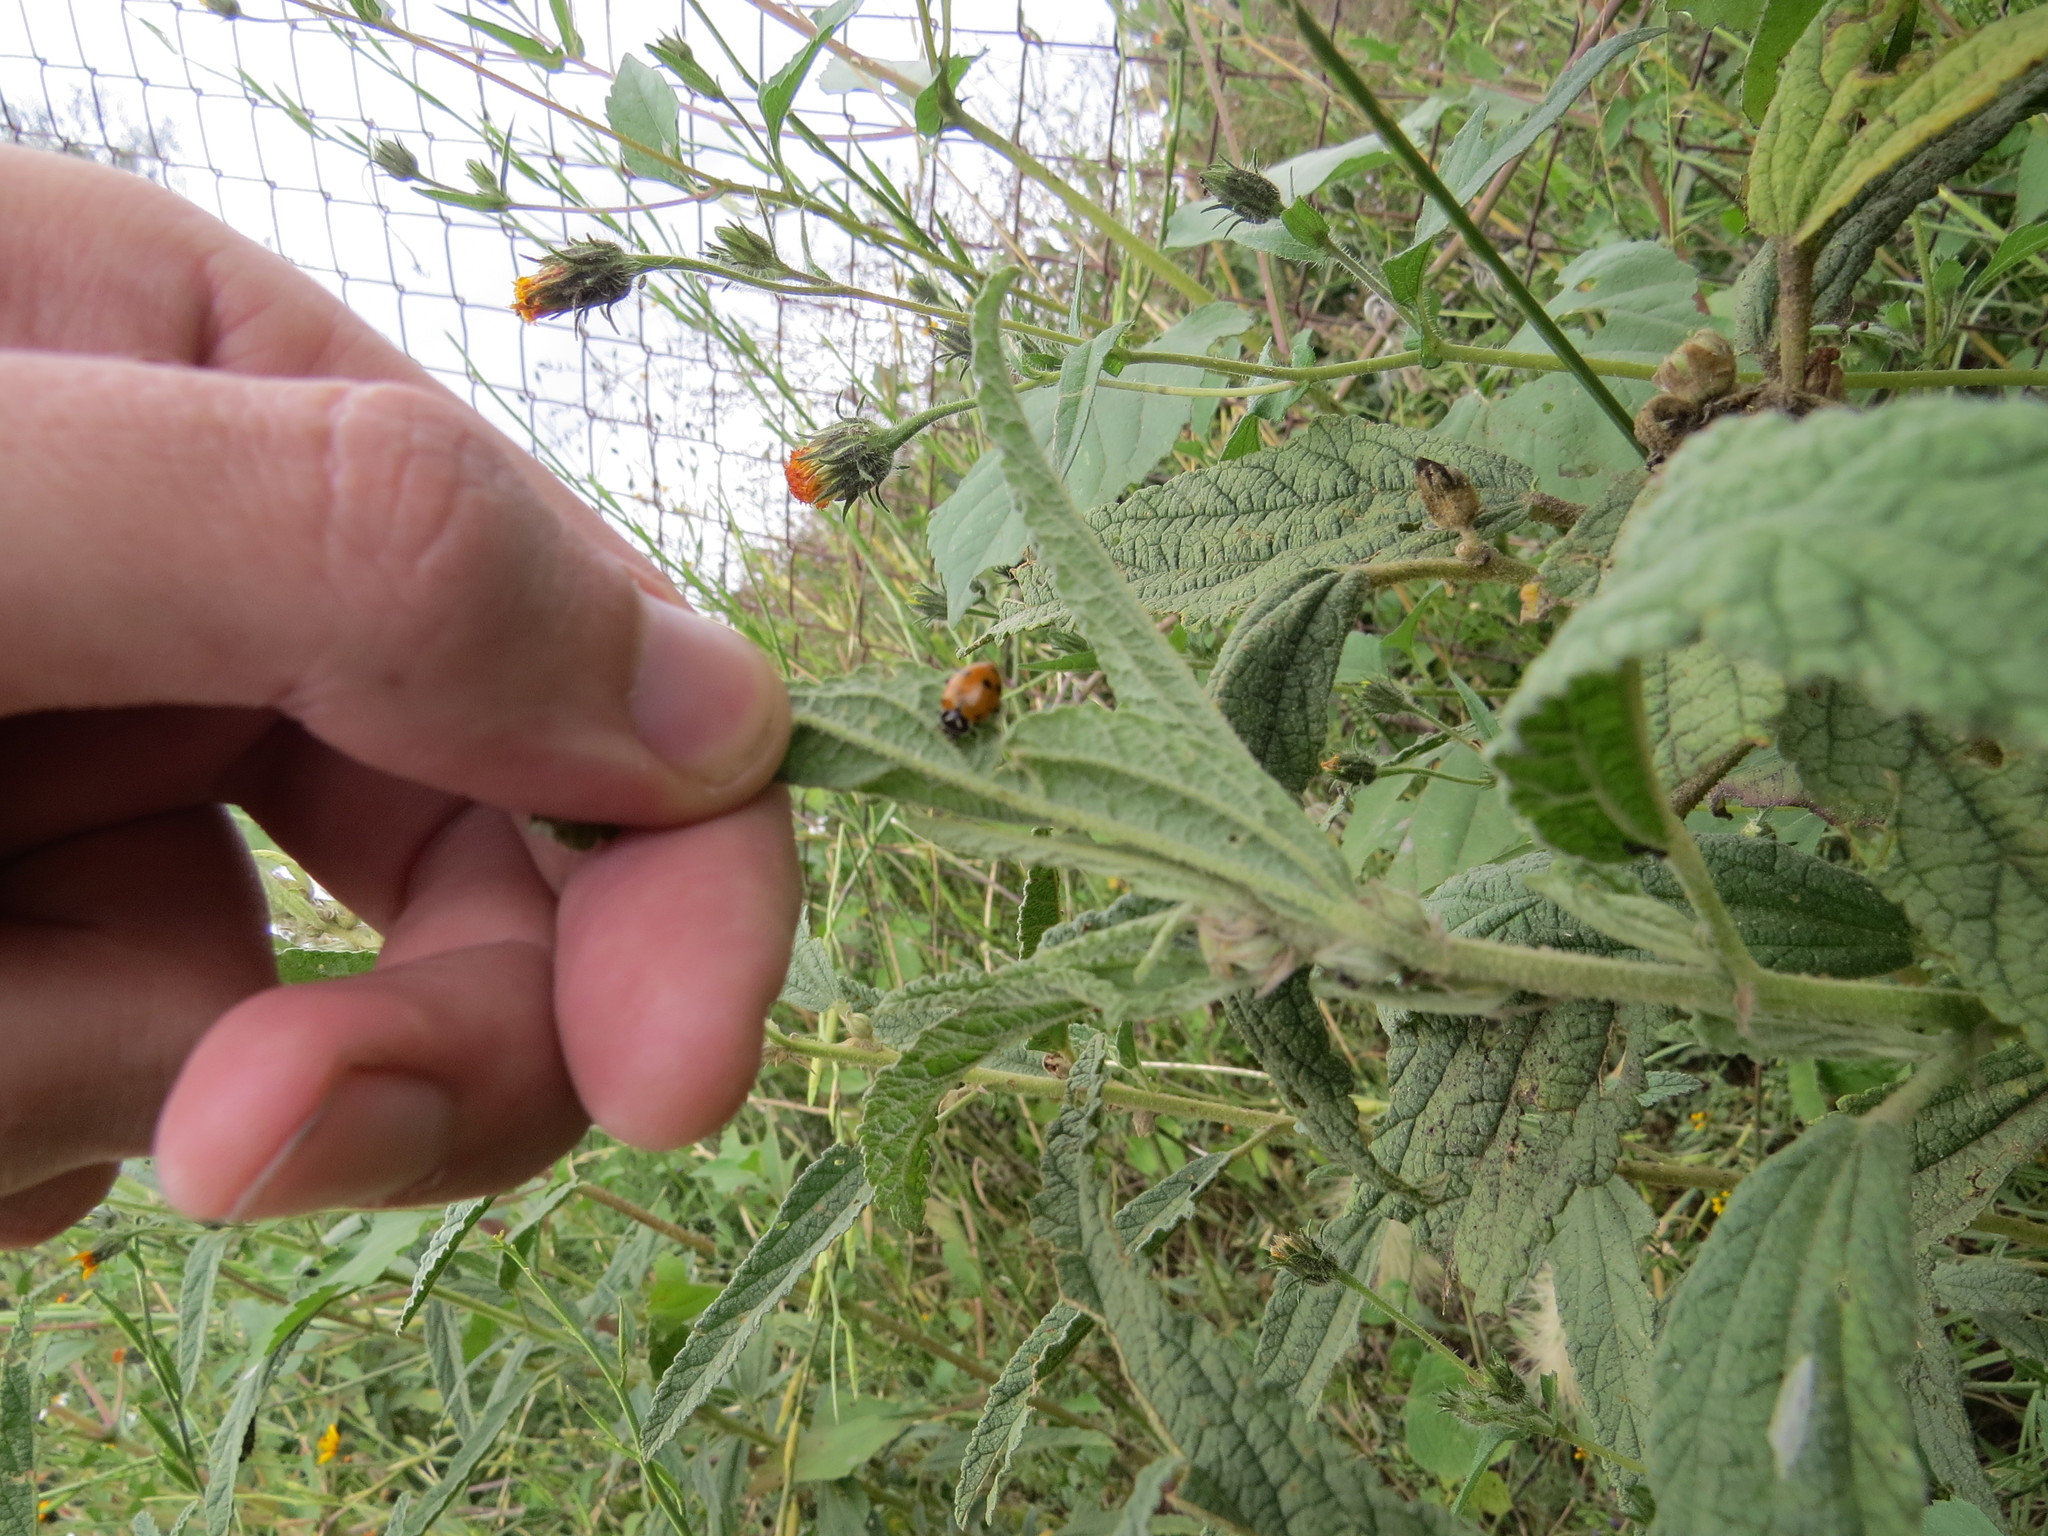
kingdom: Animalia
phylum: Arthropoda
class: Insecta
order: Coleoptera
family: Coccinellidae
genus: Hippodamia
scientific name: Hippodamia convergens
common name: Convergent lady beetle
